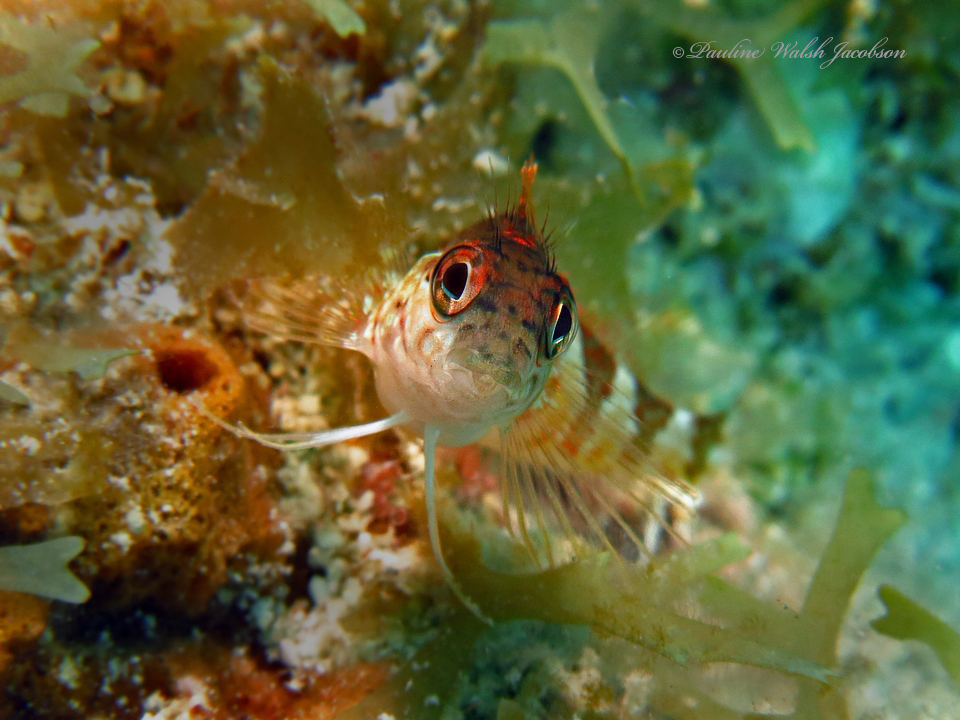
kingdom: Animalia
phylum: Chordata
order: Perciformes
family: Labrisomidae
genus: Malacoctenus
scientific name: Malacoctenus triangulatus
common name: Saddled blenny
